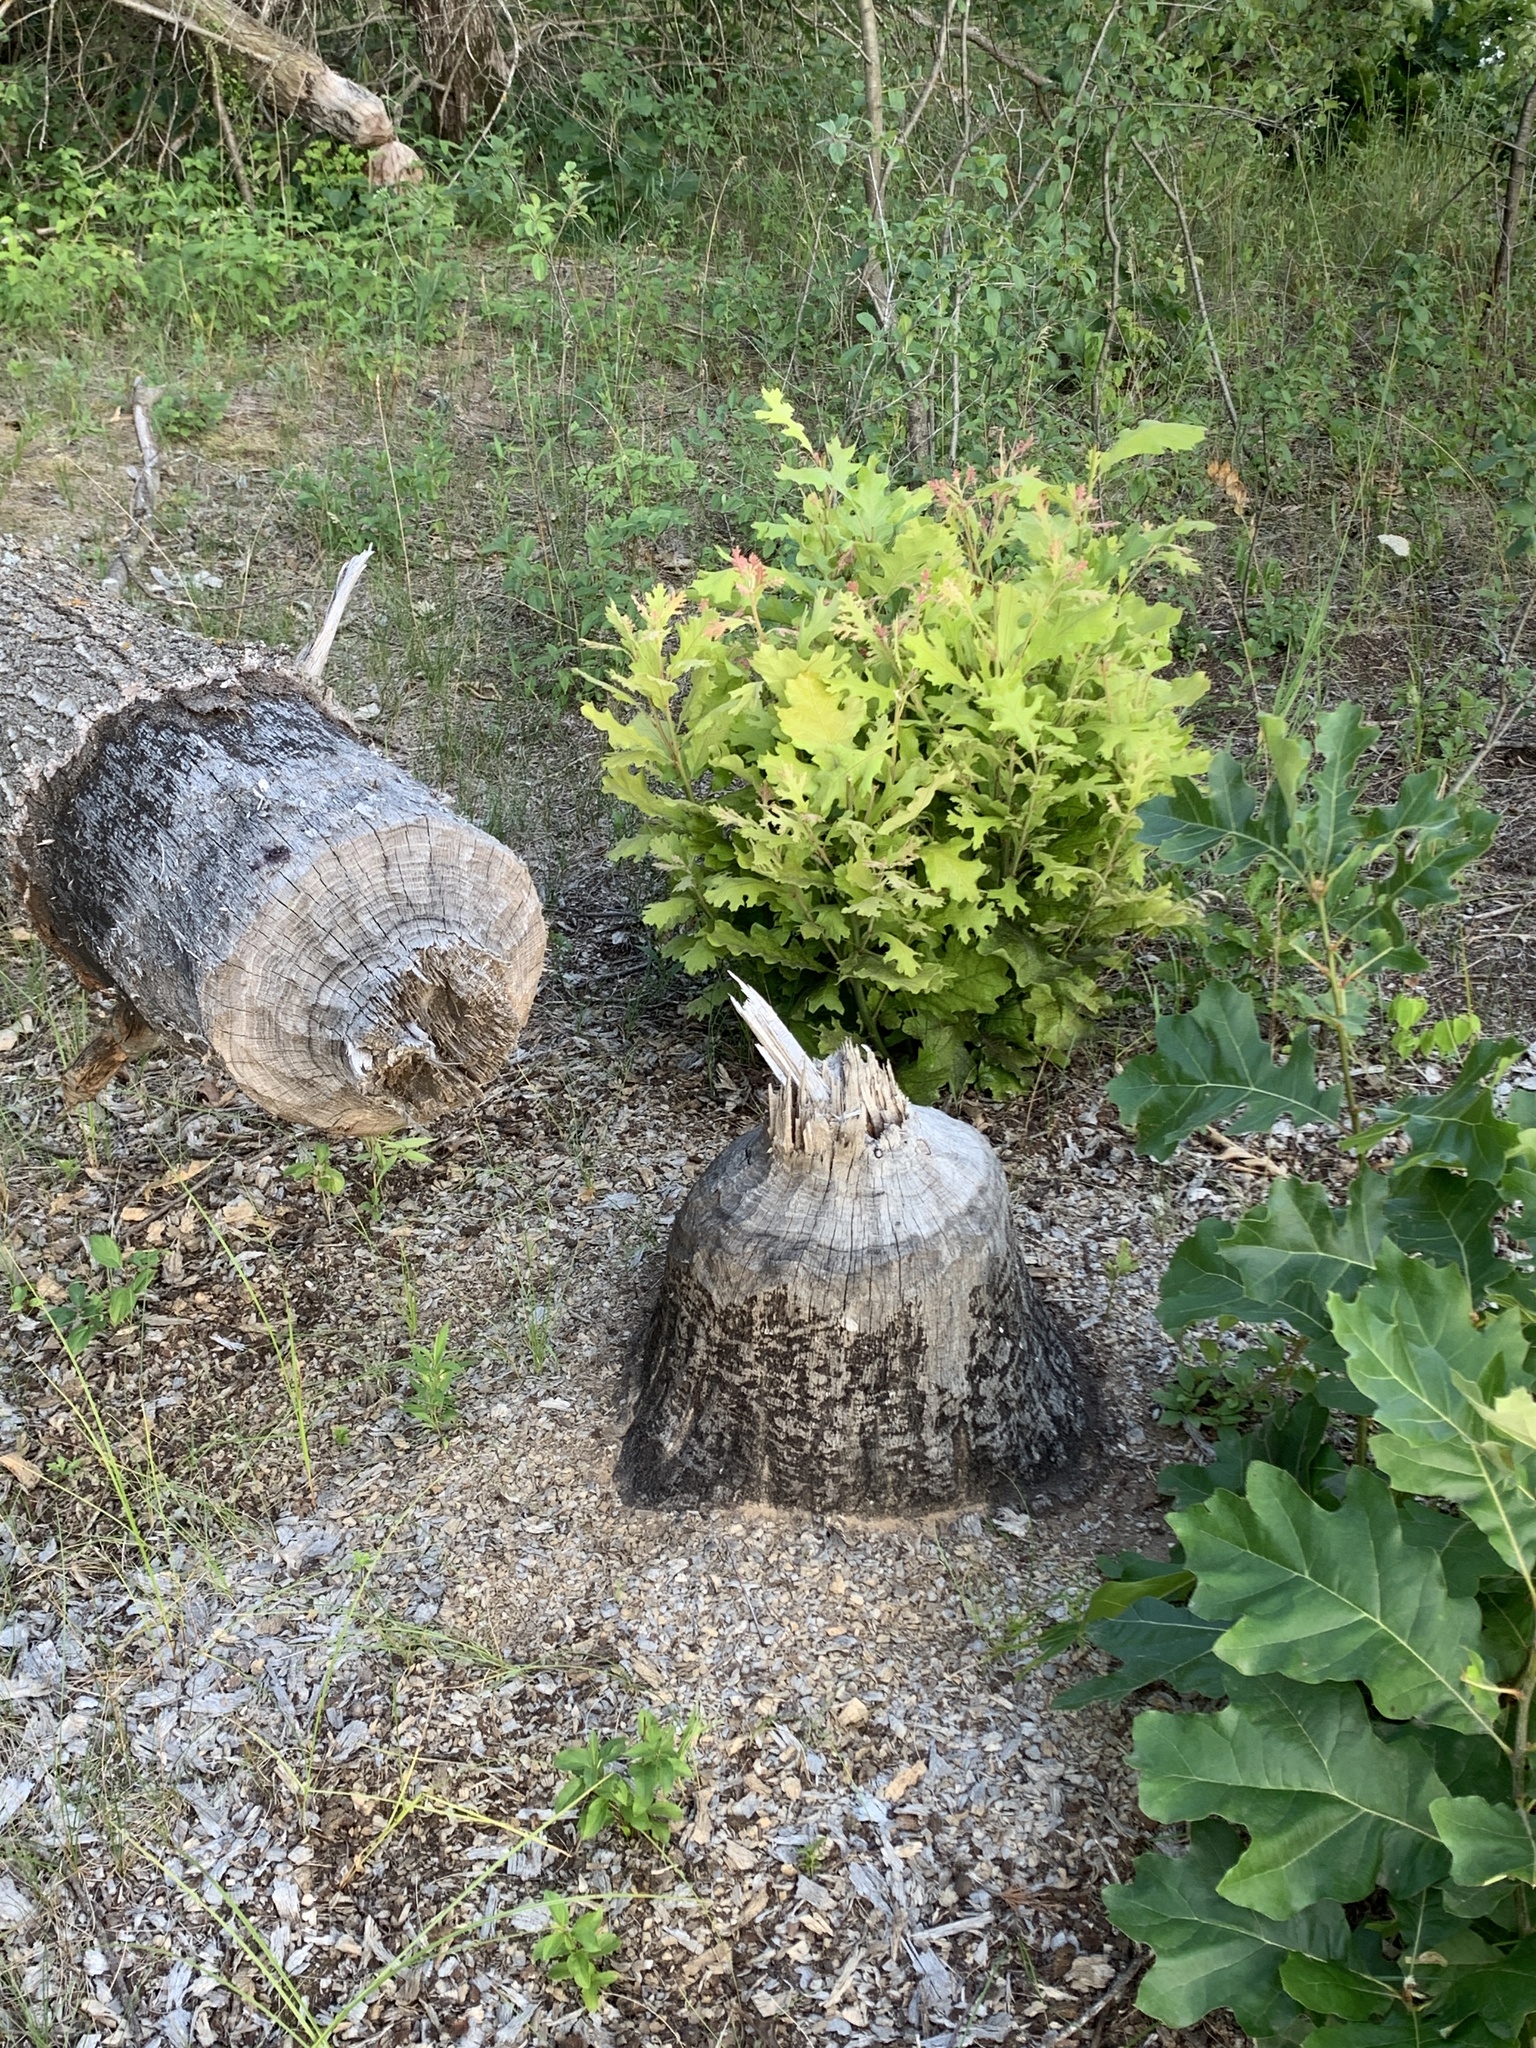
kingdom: Animalia
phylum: Chordata
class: Mammalia
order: Rodentia
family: Castoridae
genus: Castor
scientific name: Castor canadensis
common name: American beaver
